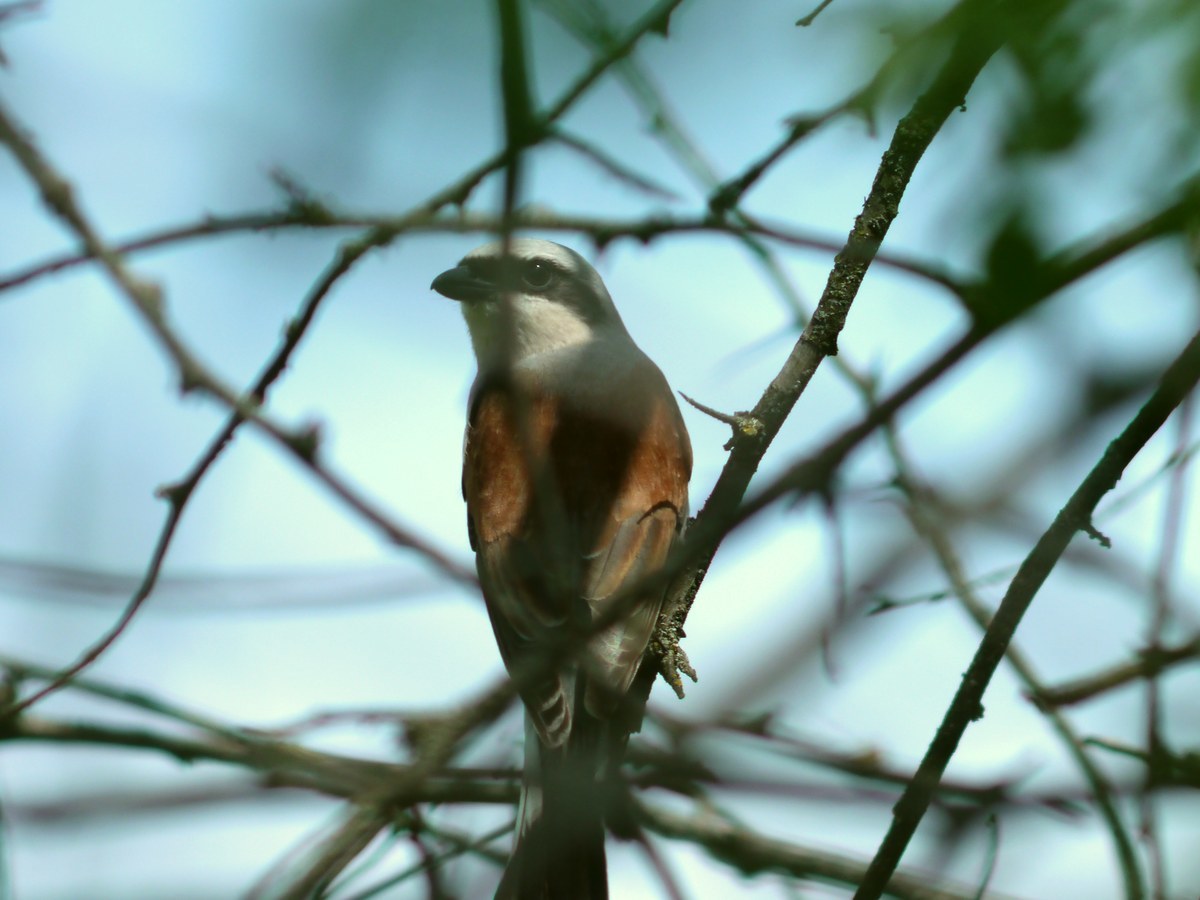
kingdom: Animalia
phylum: Chordata
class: Aves
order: Passeriformes
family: Laniidae
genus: Lanius
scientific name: Lanius collurio
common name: Red-backed shrike
